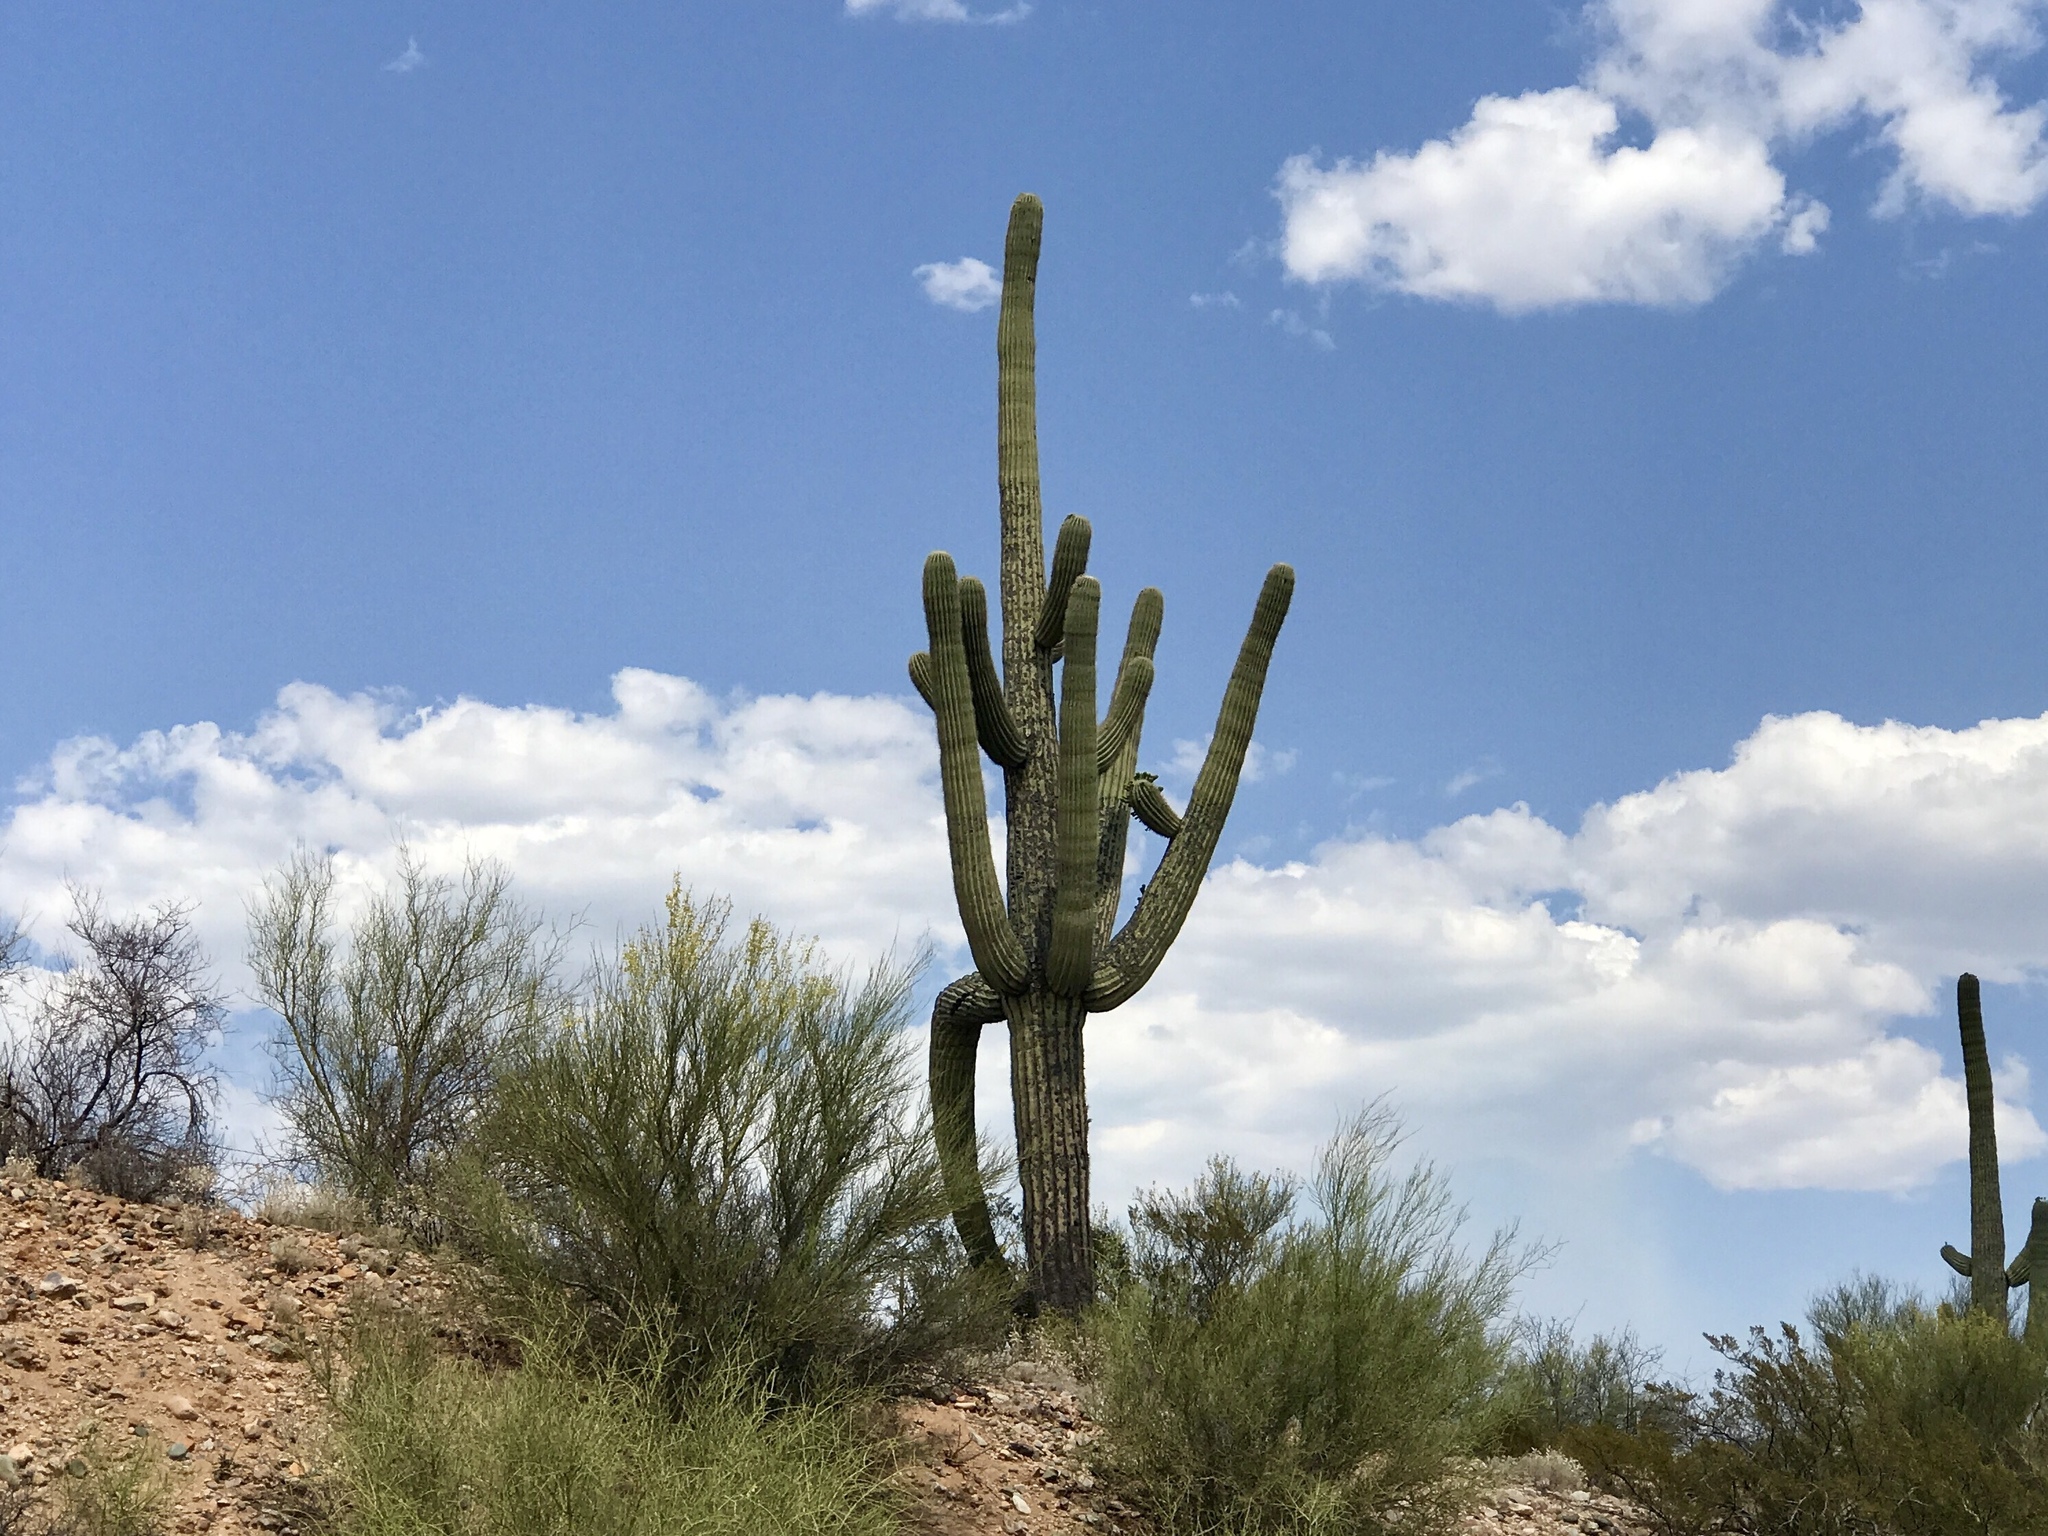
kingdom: Plantae
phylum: Tracheophyta
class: Magnoliopsida
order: Caryophyllales
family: Cactaceae
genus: Carnegiea
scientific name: Carnegiea gigantea
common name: Saguaro
